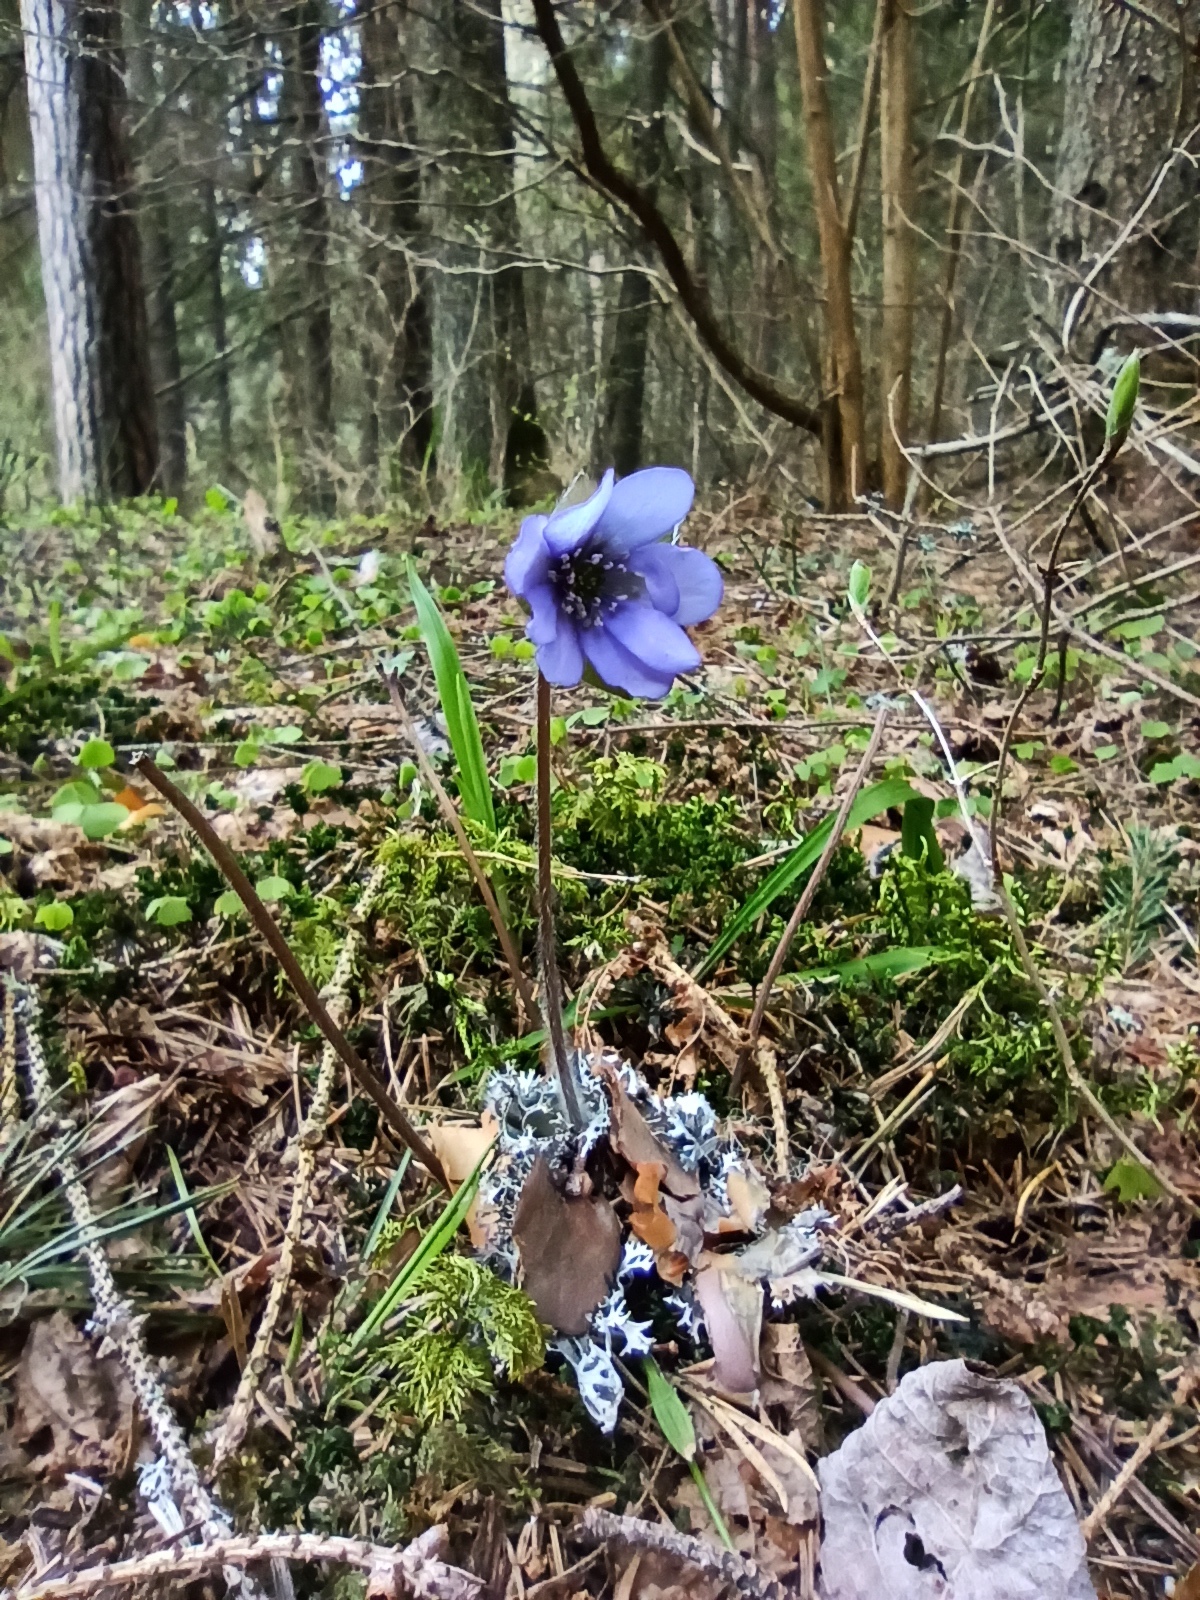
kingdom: Plantae
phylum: Tracheophyta
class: Magnoliopsida
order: Ranunculales
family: Ranunculaceae
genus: Hepatica
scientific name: Hepatica nobilis
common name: Liverleaf
